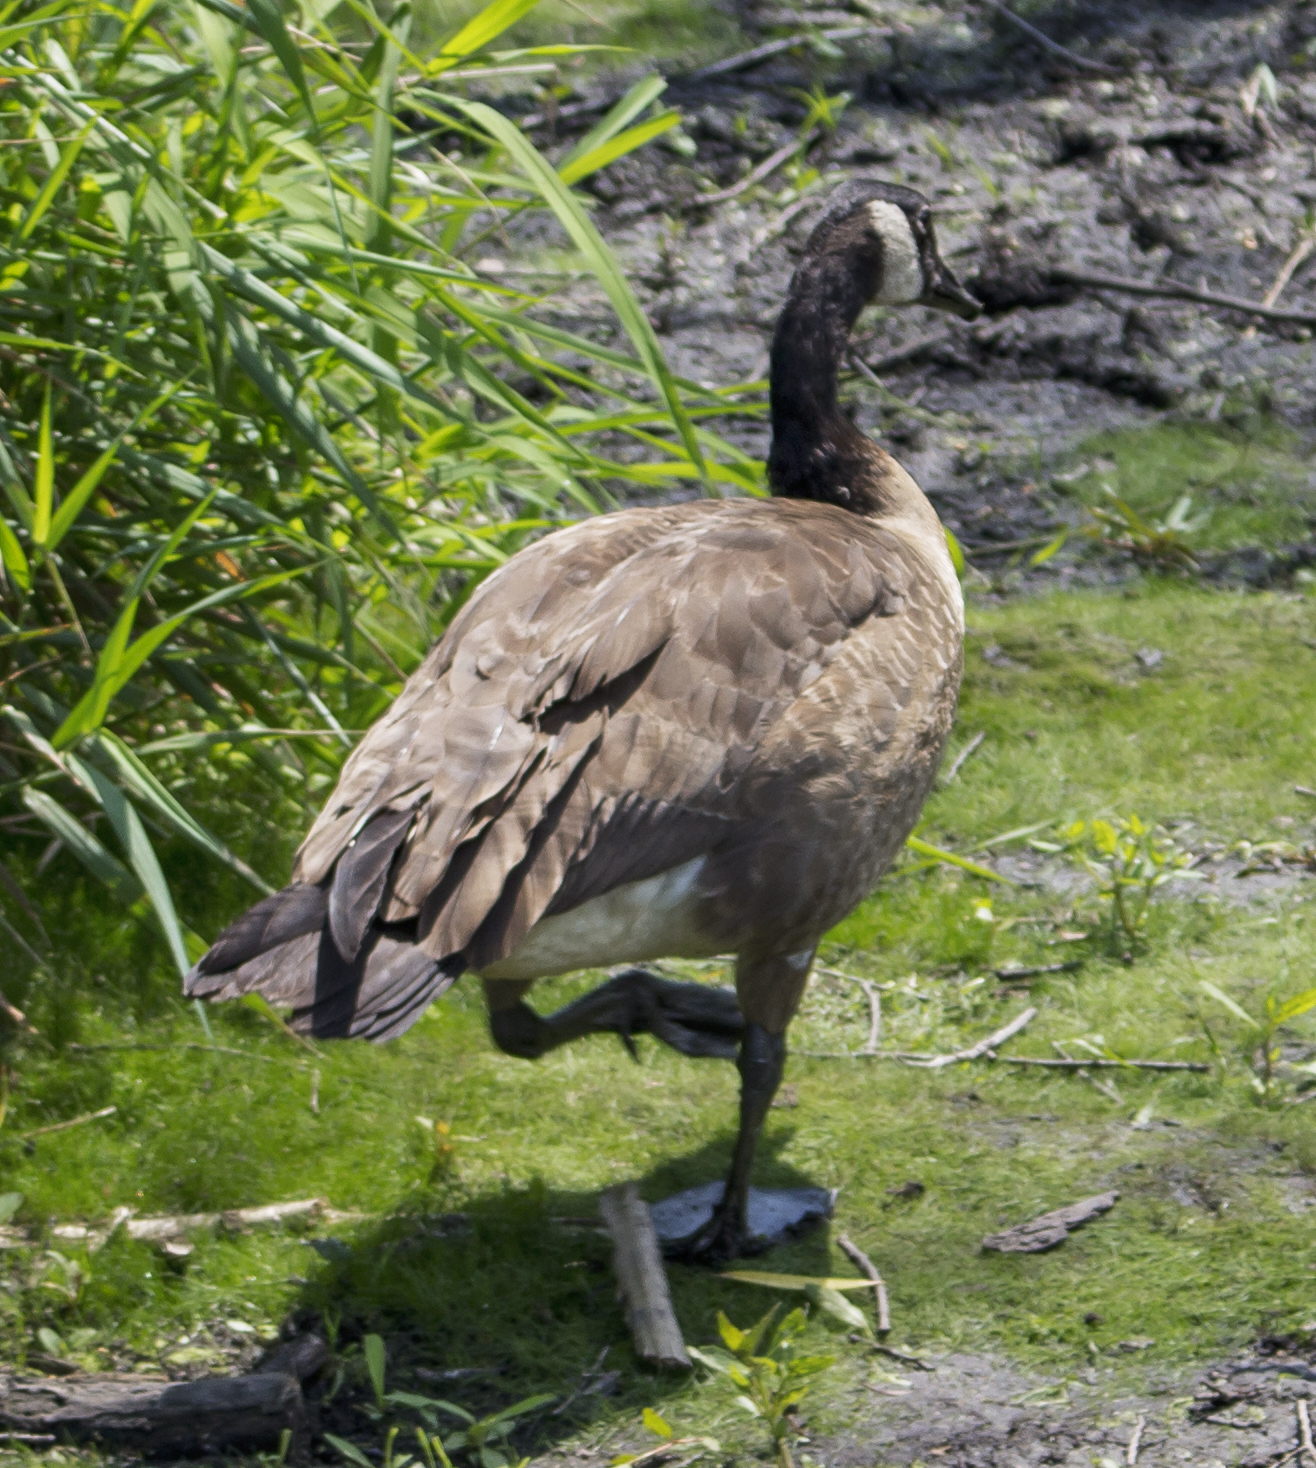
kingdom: Animalia
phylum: Chordata
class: Aves
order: Anseriformes
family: Anatidae
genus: Branta
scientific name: Branta canadensis
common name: Canada goose
